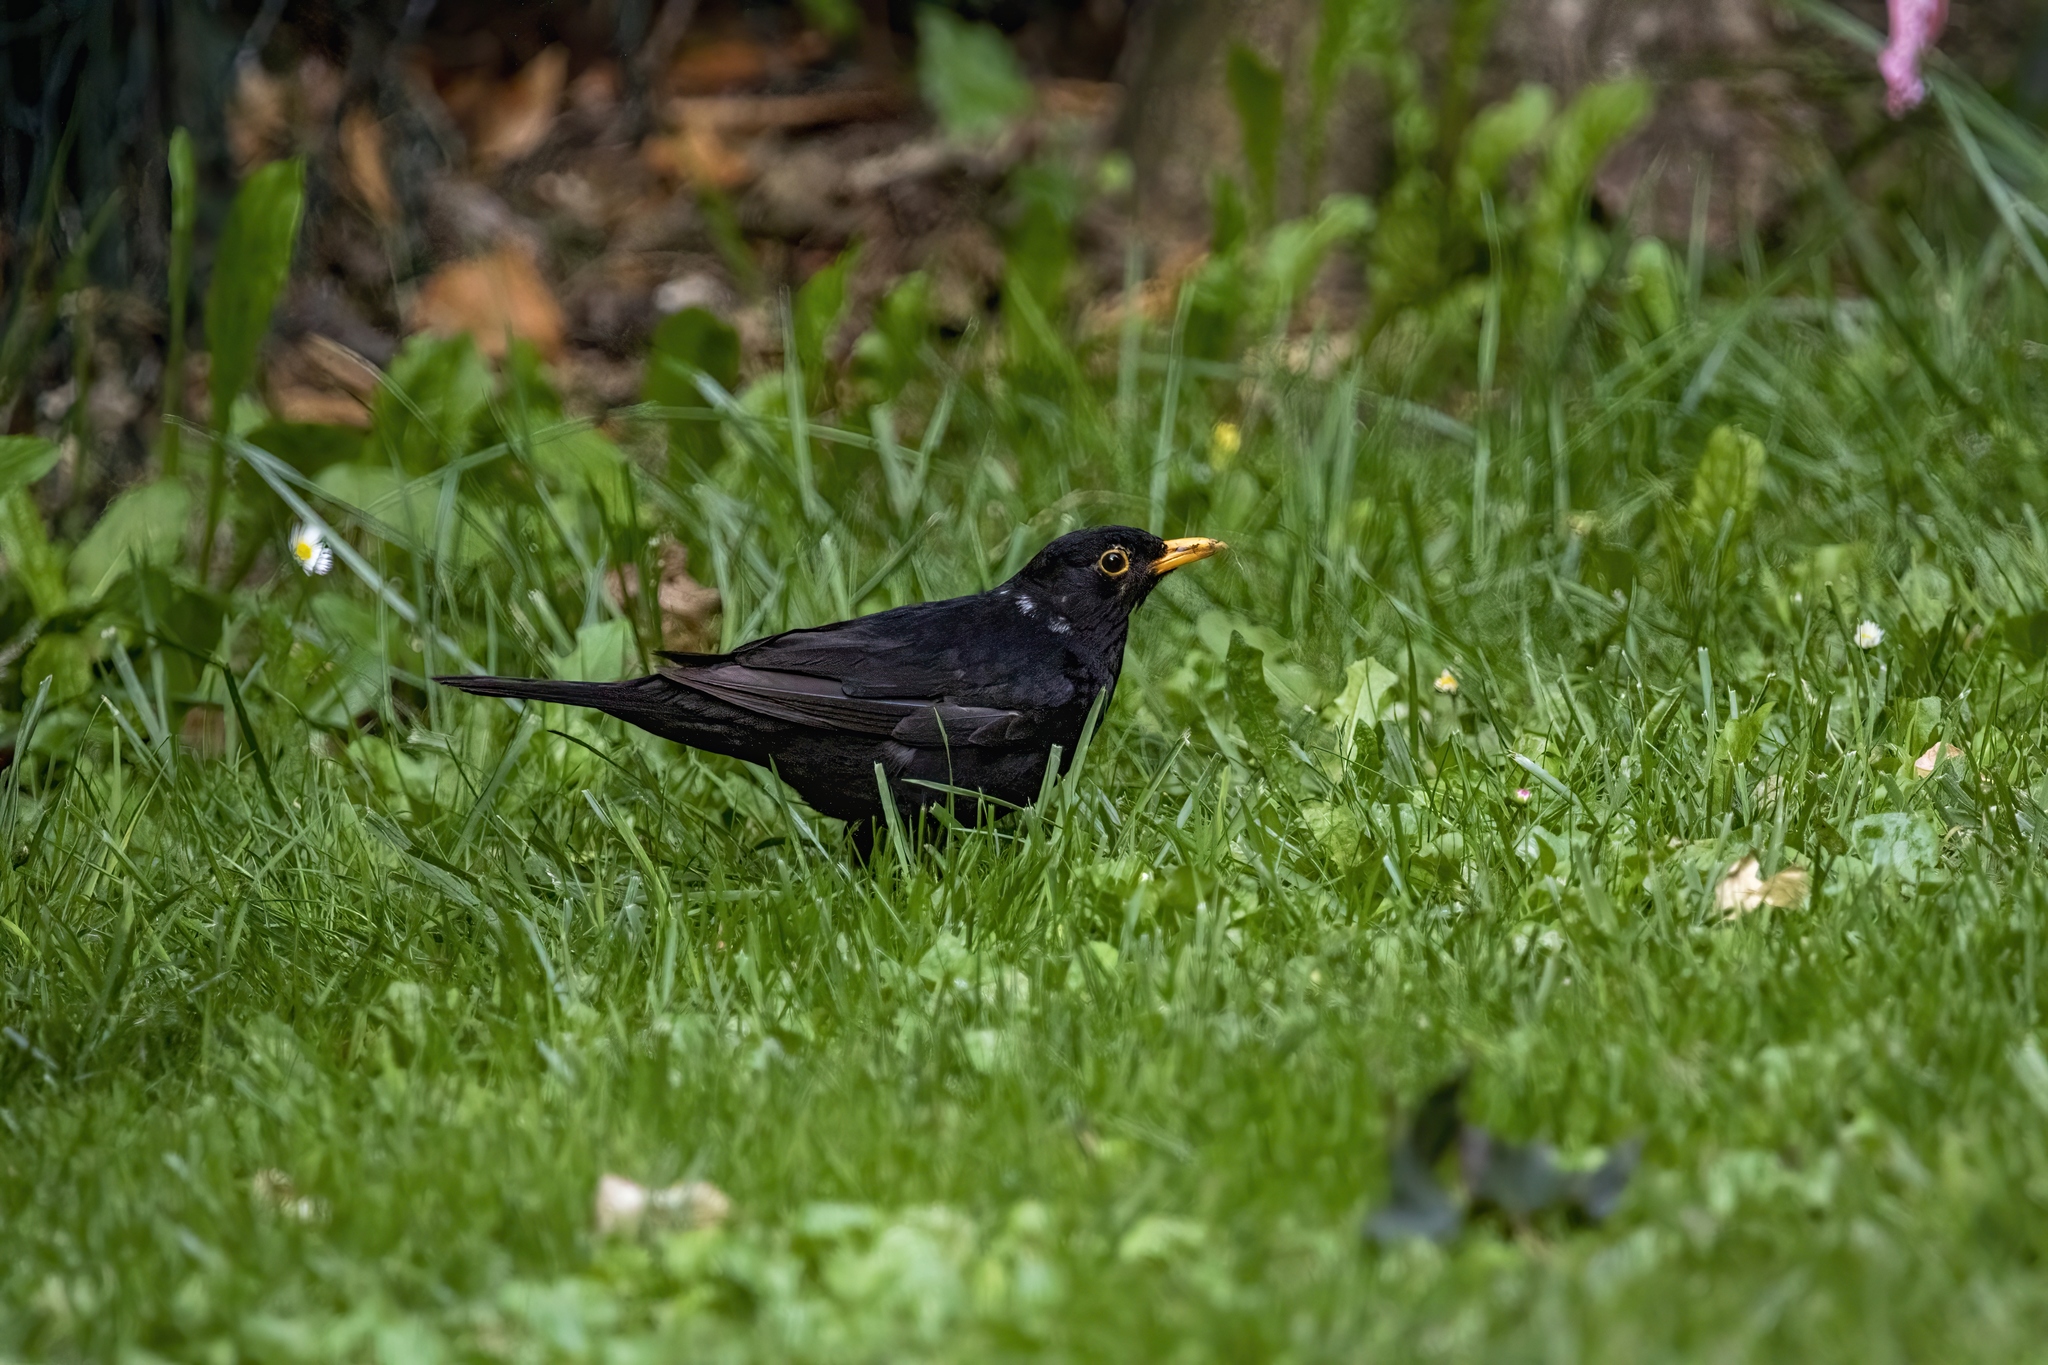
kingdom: Animalia
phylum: Chordata
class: Aves
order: Passeriformes
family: Turdidae
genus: Turdus
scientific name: Turdus merula
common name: Common blackbird
